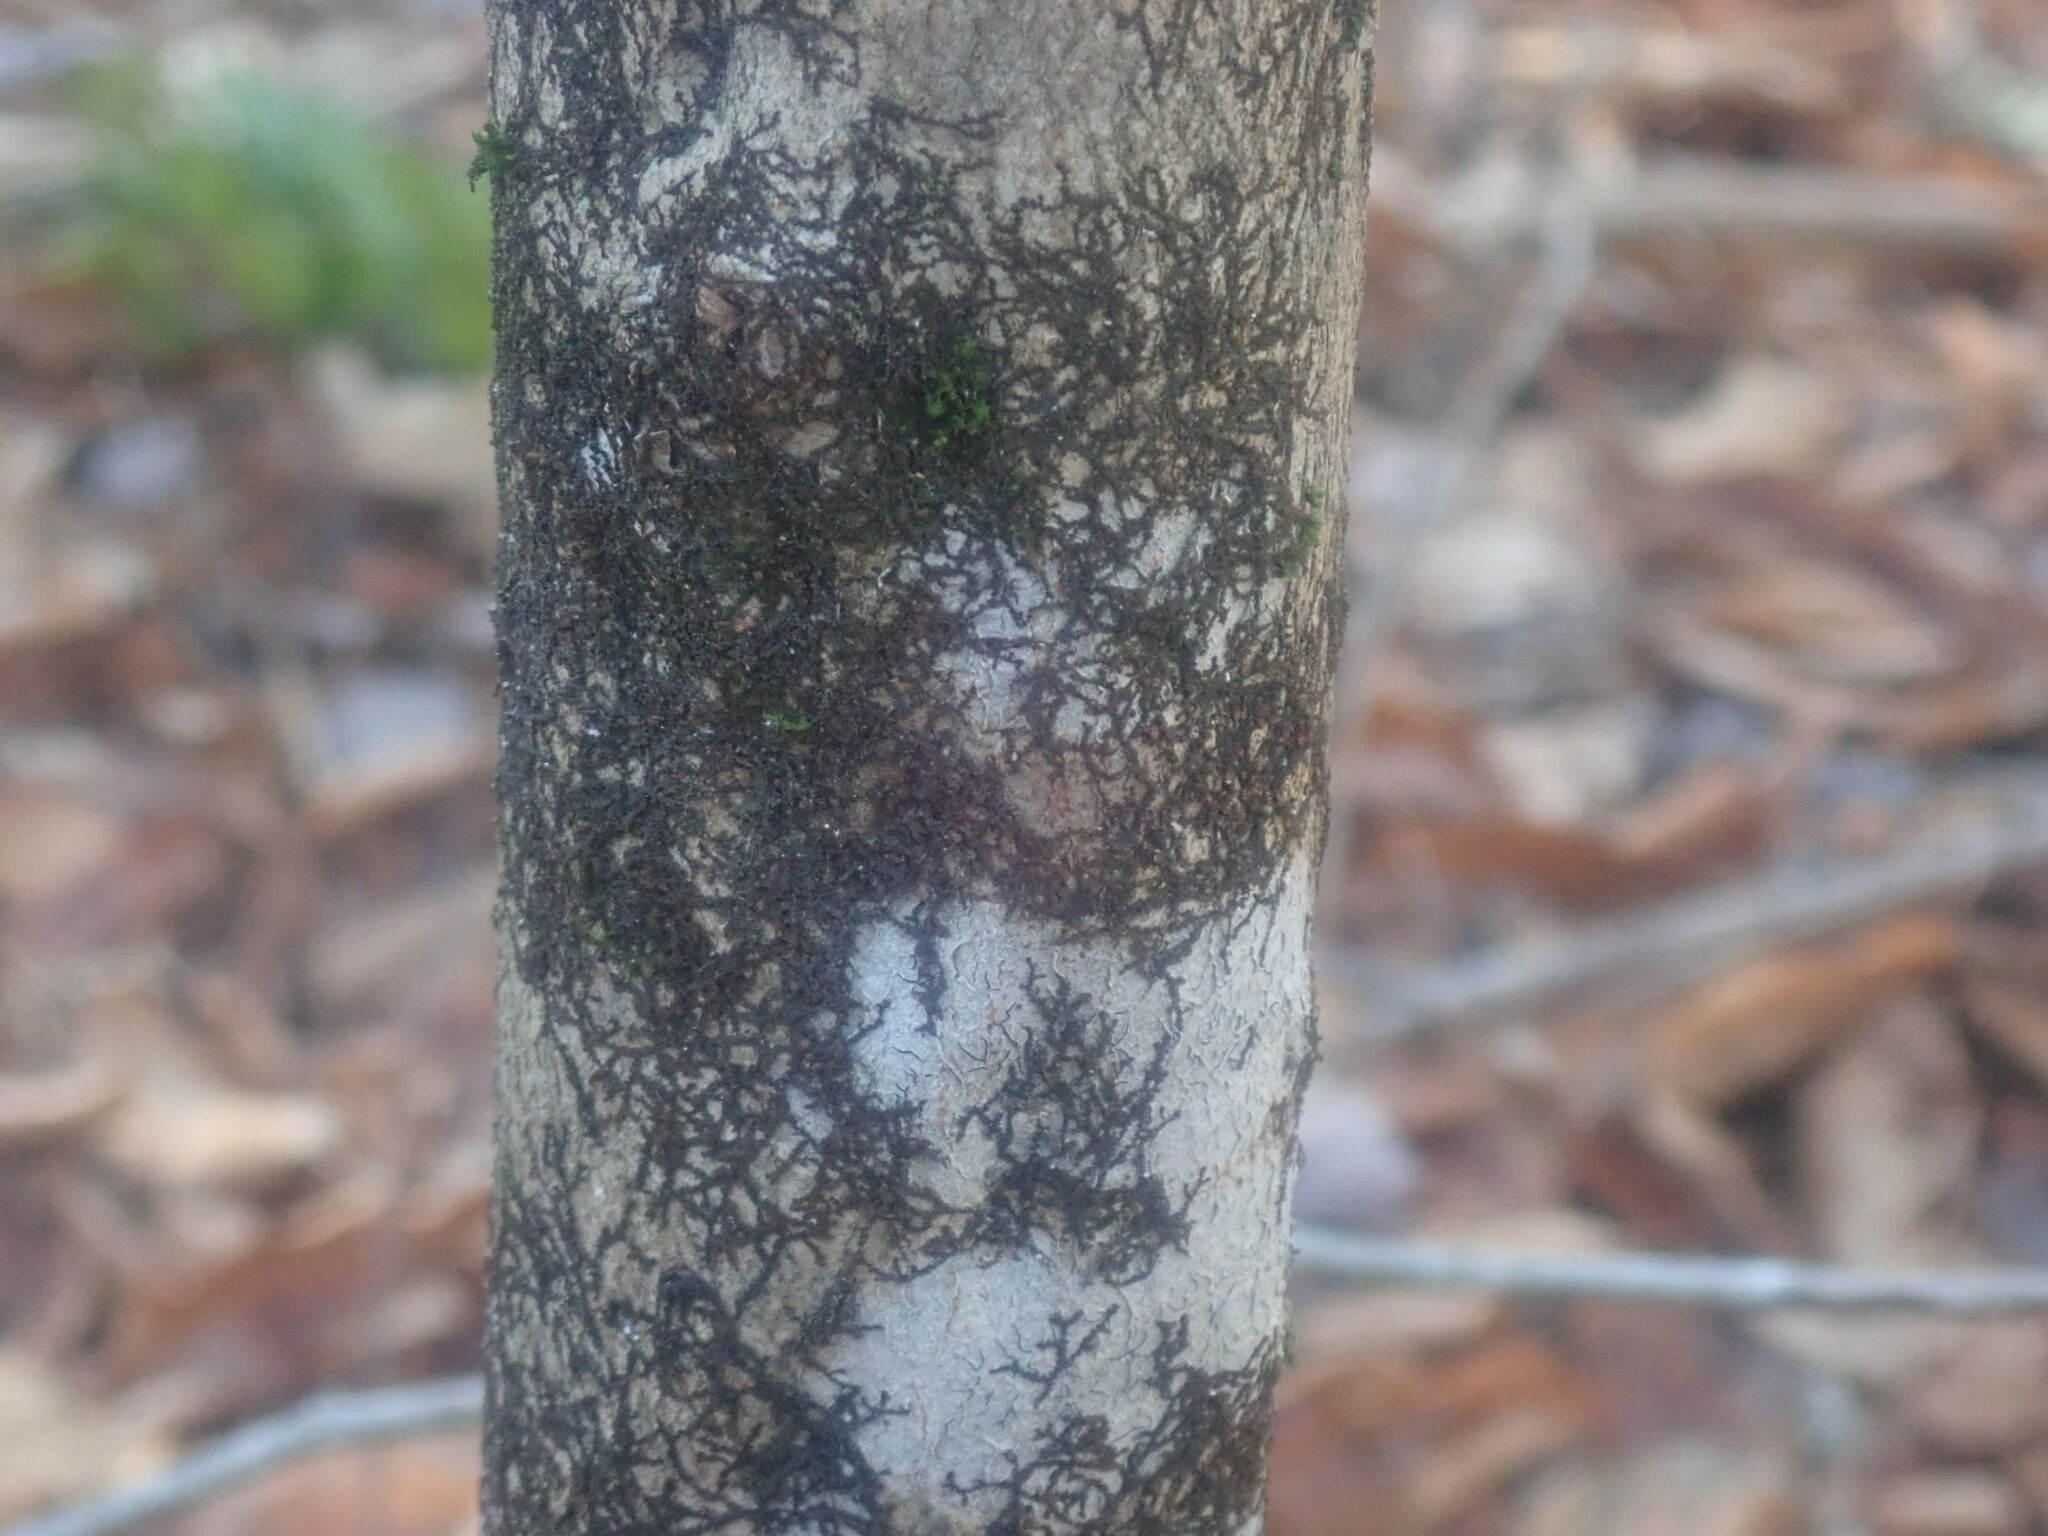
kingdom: Plantae
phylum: Marchantiophyta
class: Jungermanniopsida
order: Porellales
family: Frullaniaceae
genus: Frullania
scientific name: Frullania
